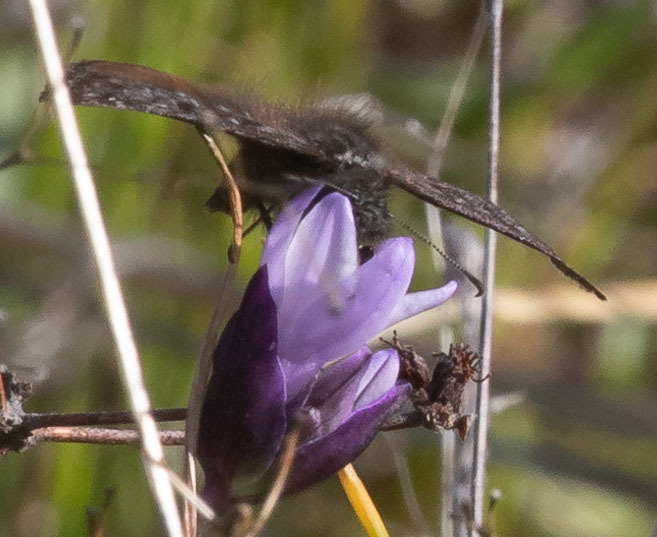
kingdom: Animalia
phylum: Arthropoda
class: Insecta
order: Lepidoptera
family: Hesperiidae
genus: Erynnis
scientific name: Erynnis propertius
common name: Propertius duskywing
